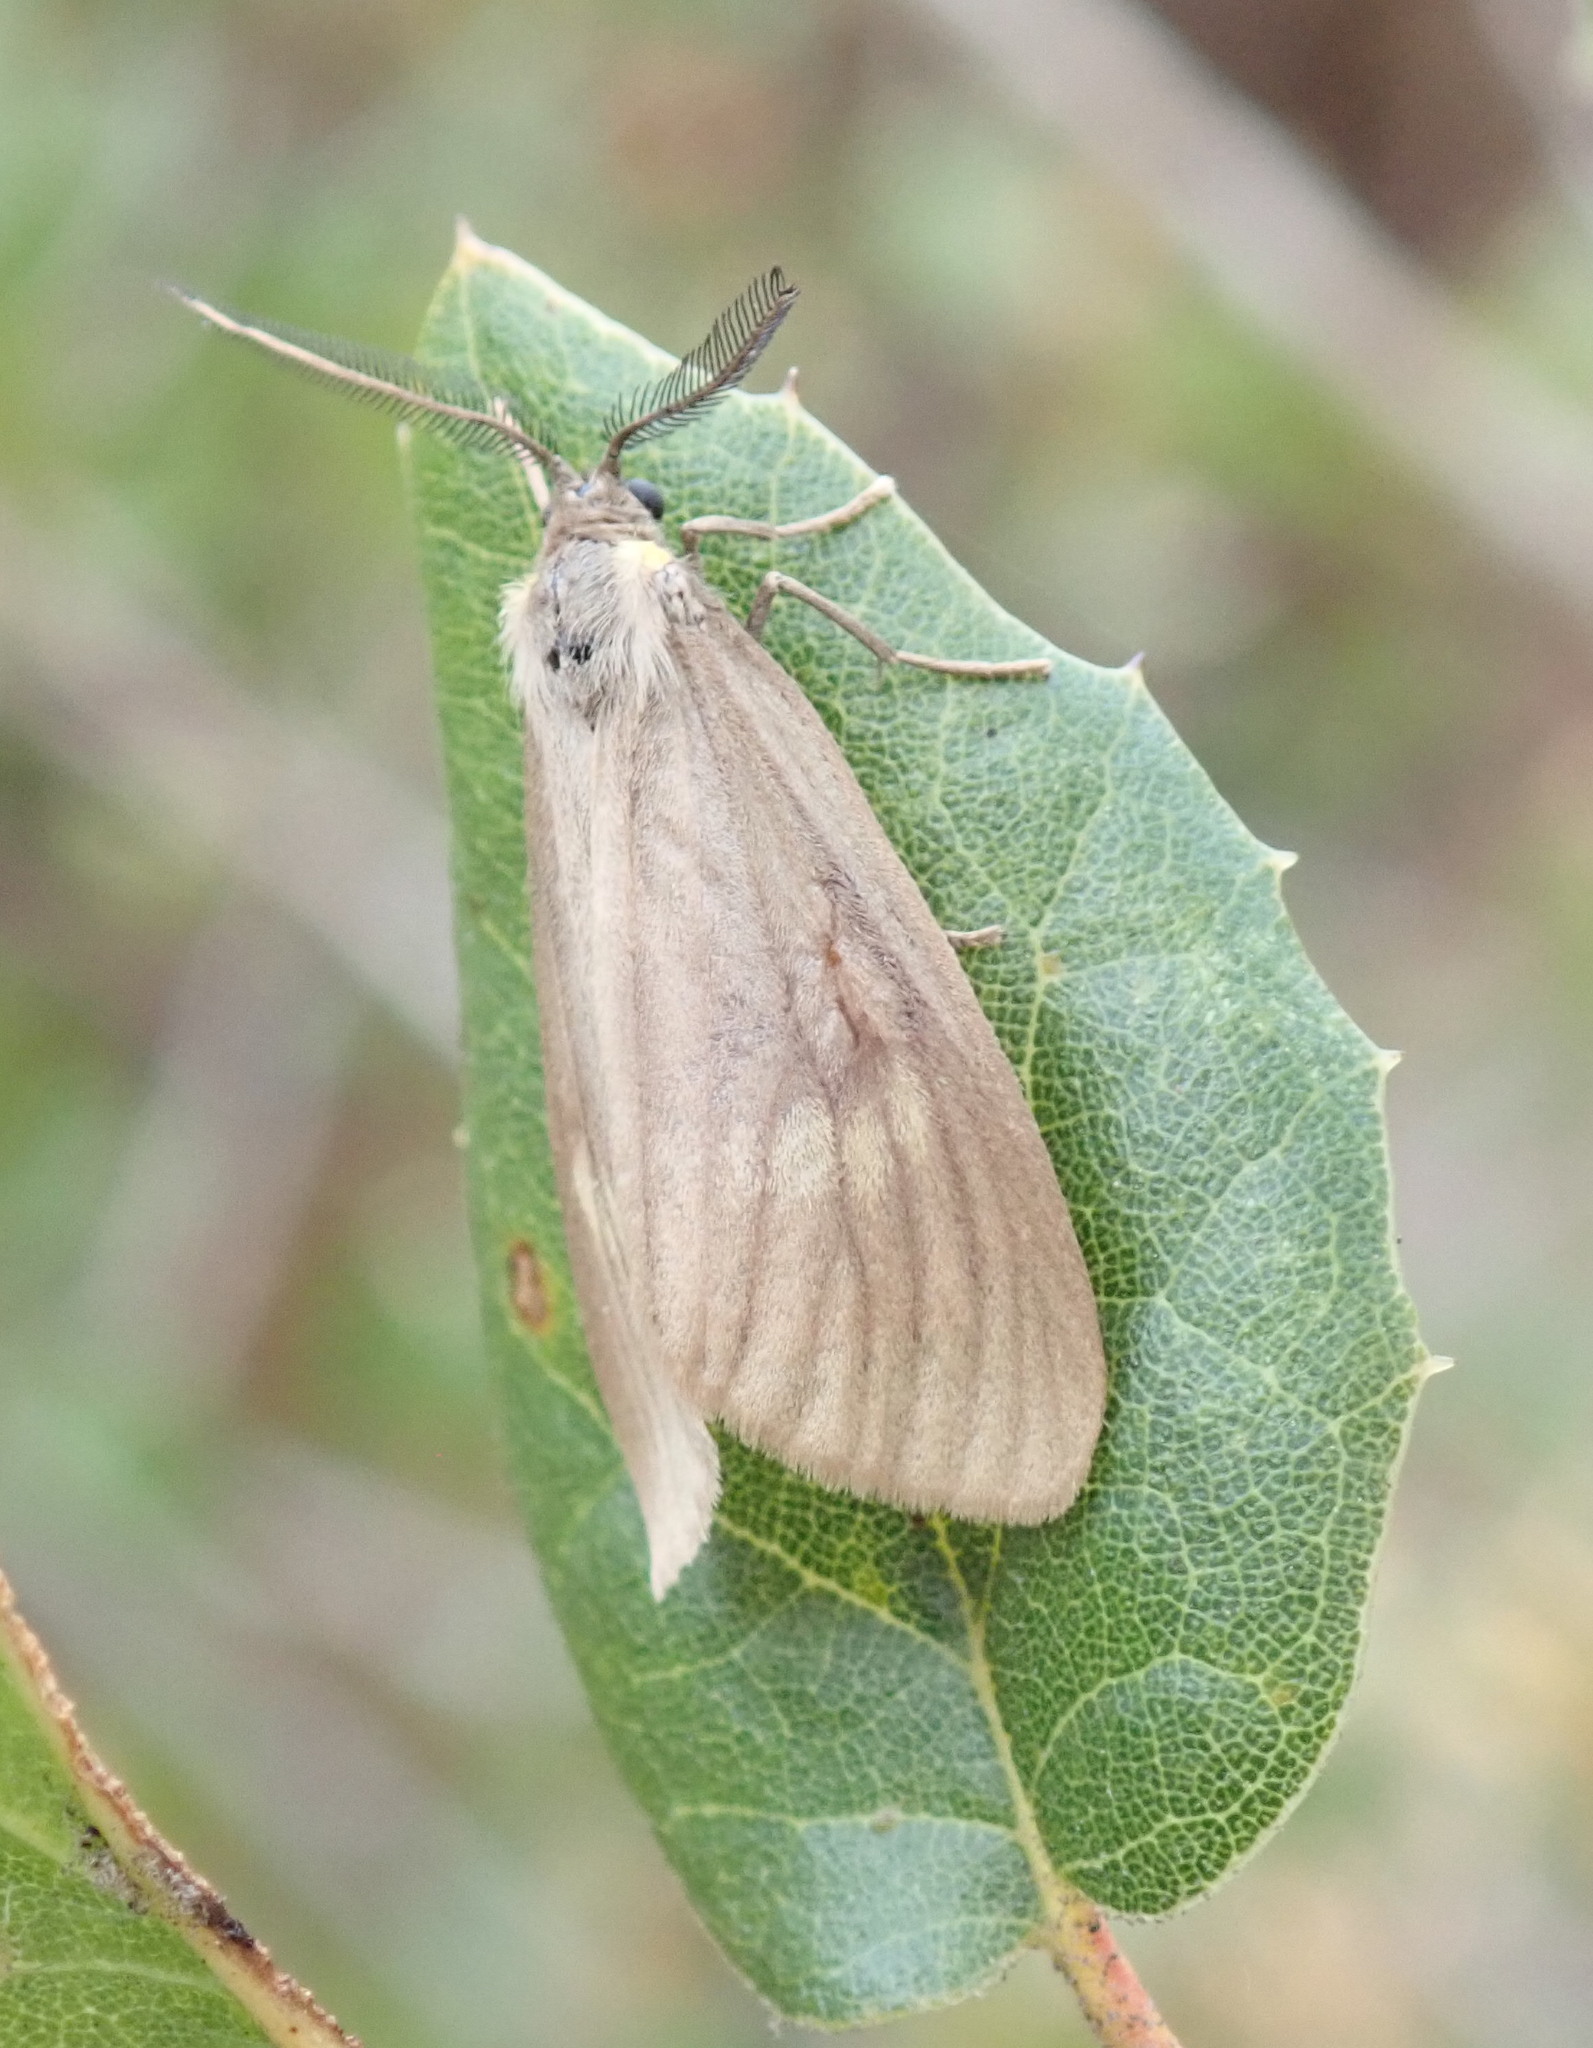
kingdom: Animalia
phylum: Arthropoda
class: Insecta
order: Lepidoptera
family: Notodontidae
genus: Phryganidia
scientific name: Phryganidia californica
